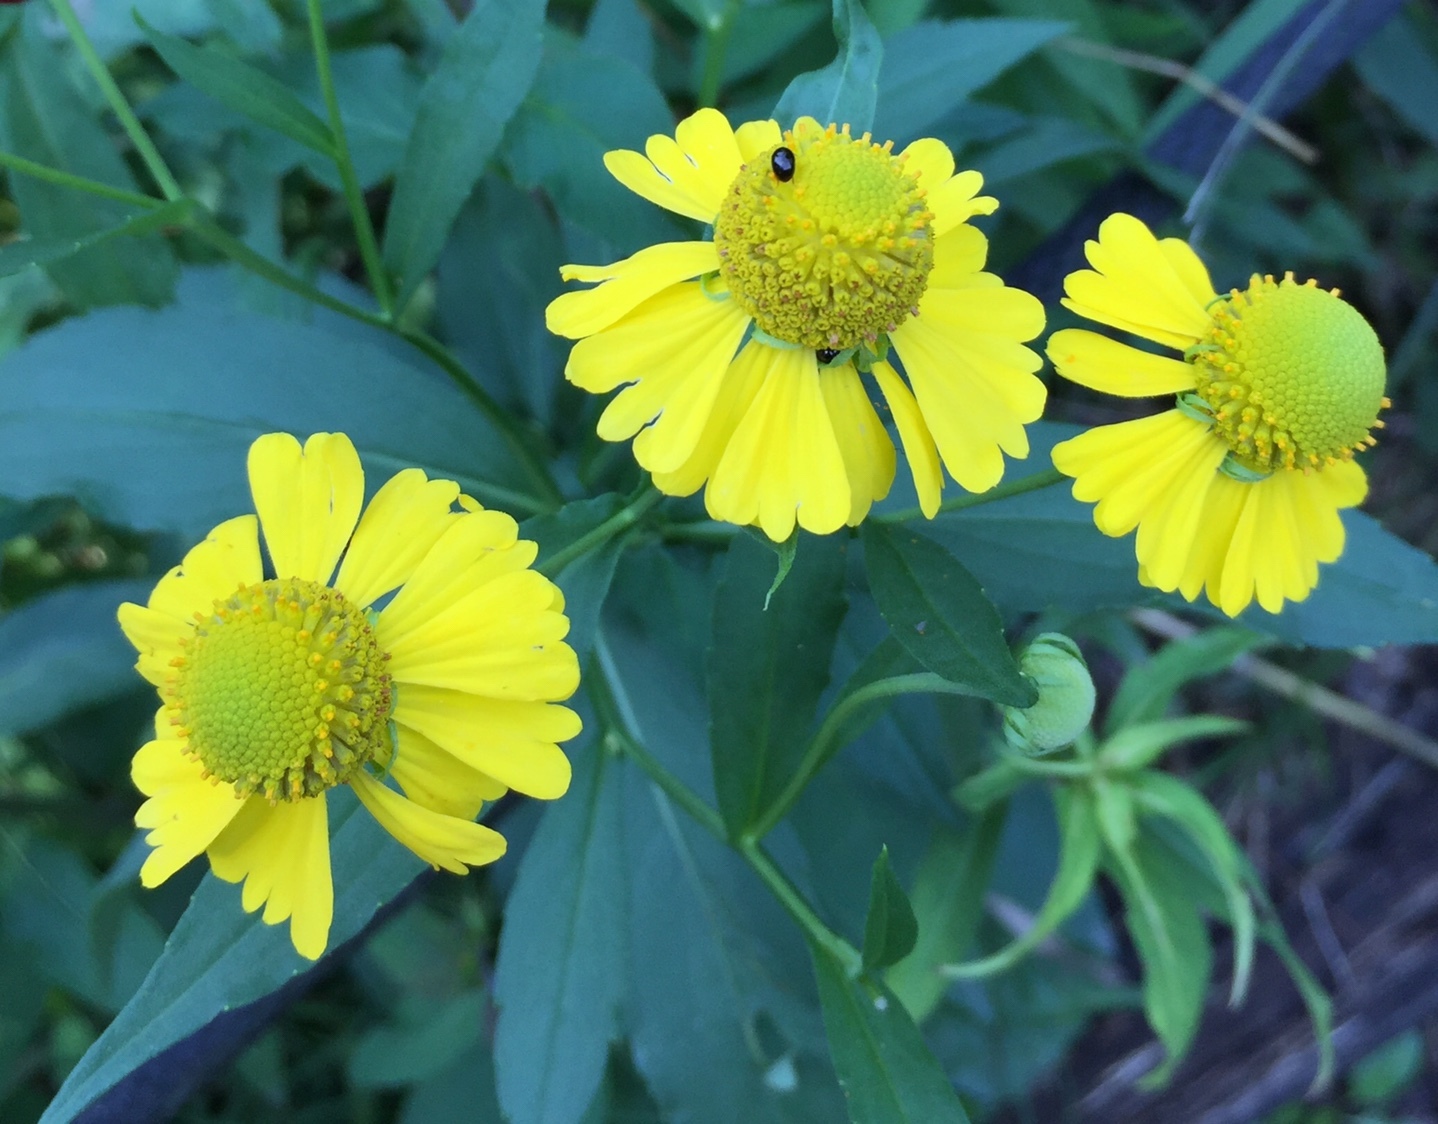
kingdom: Plantae
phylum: Tracheophyta
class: Magnoliopsida
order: Asterales
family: Asteraceae
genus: Helenium
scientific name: Helenium autumnale
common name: Sneezeweed
